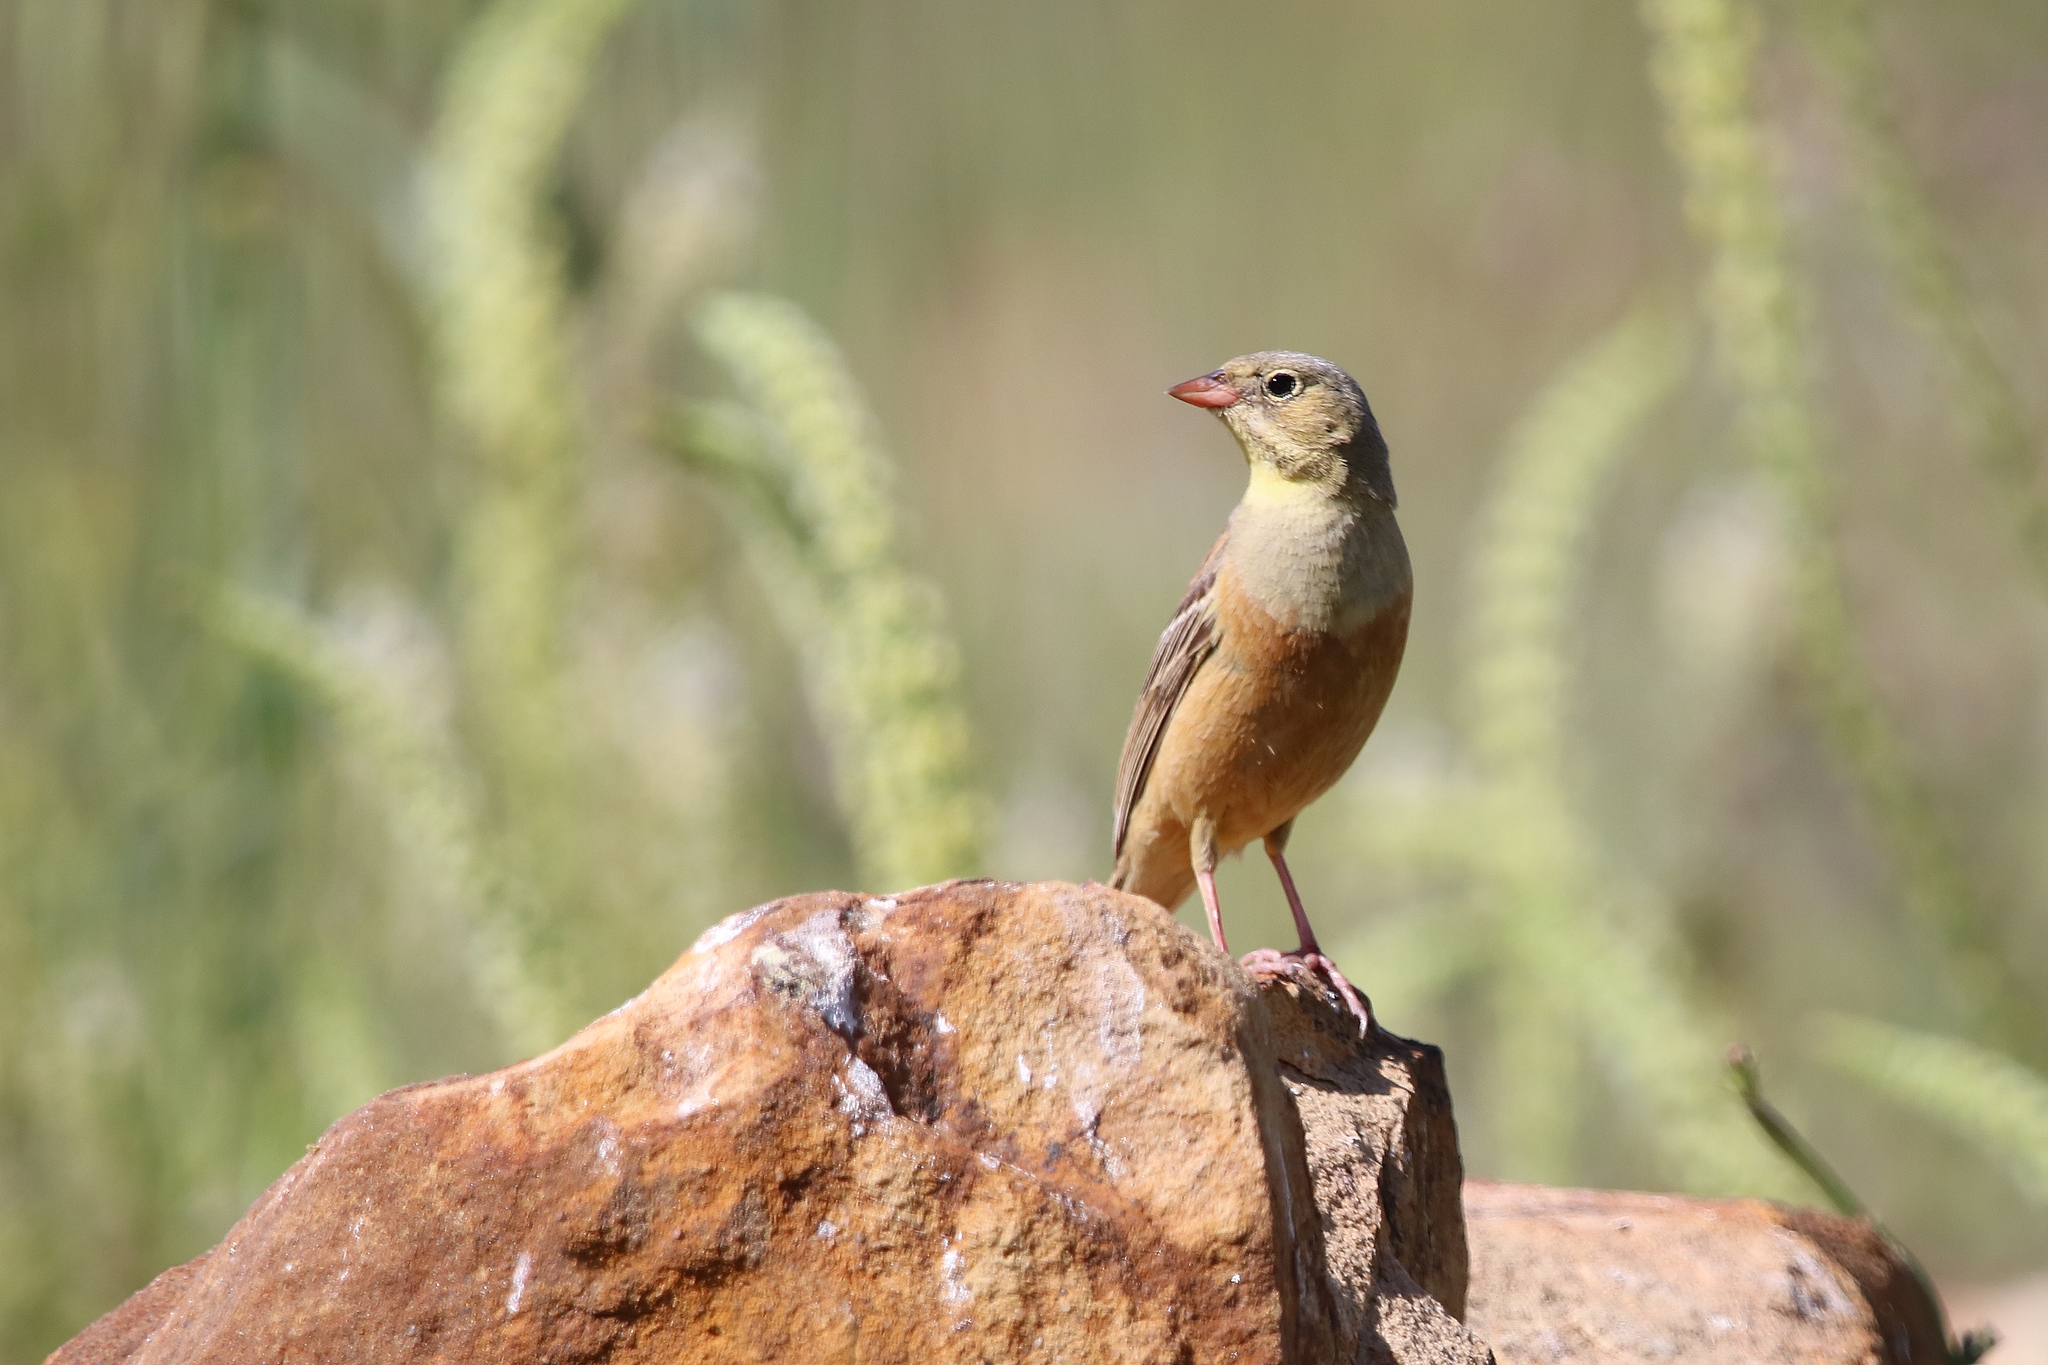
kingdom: Animalia
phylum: Chordata
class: Aves
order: Passeriformes
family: Emberizidae
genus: Emberiza
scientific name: Emberiza hortulana
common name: Ortolan bunting
